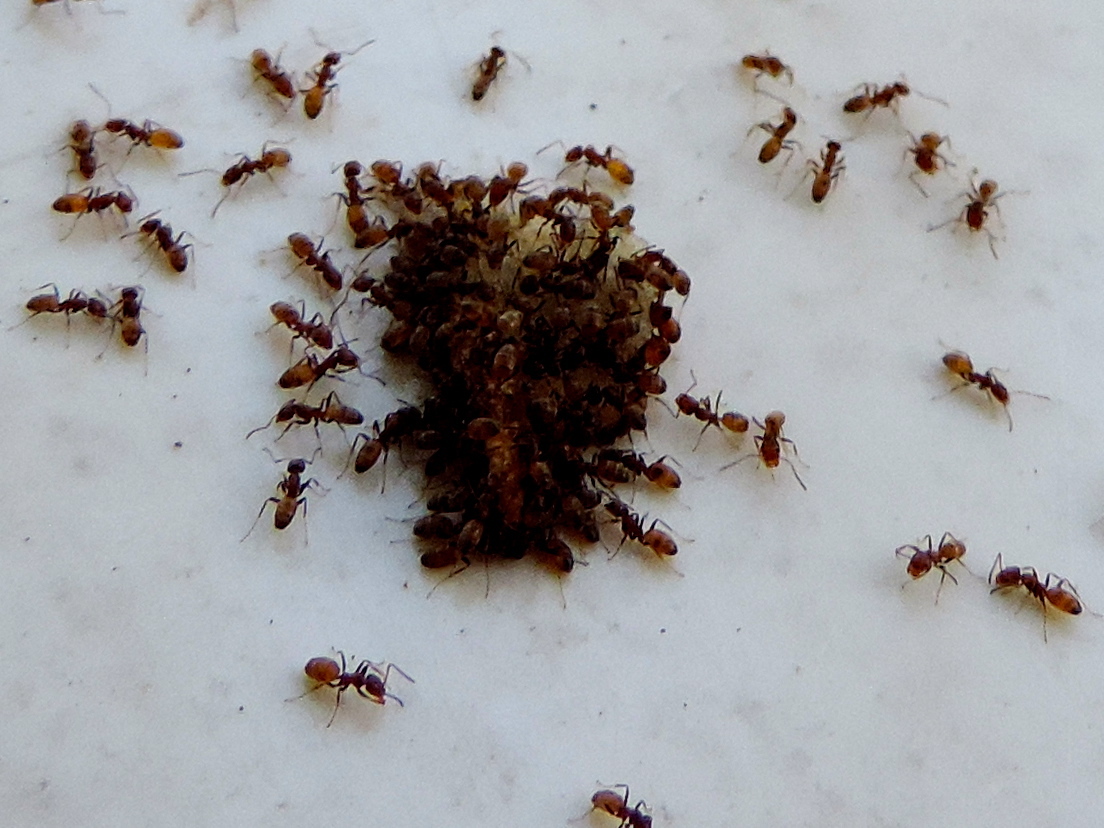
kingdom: Animalia
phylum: Arthropoda
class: Insecta
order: Hymenoptera
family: Formicidae
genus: Forelius
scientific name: Forelius
